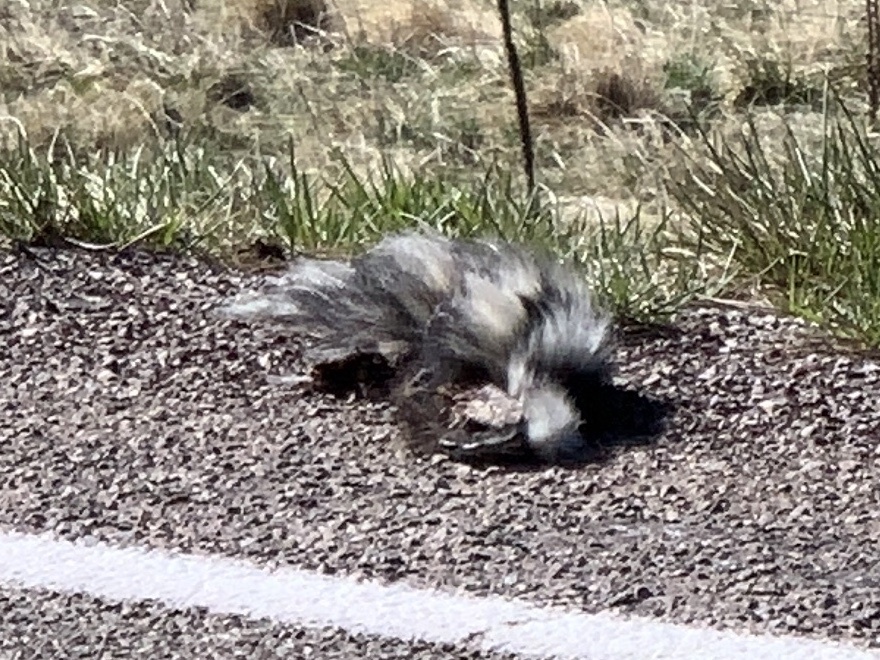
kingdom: Animalia
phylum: Chordata
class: Mammalia
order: Carnivora
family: Mephitidae
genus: Mephitis
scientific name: Mephitis mephitis
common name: Striped skunk
